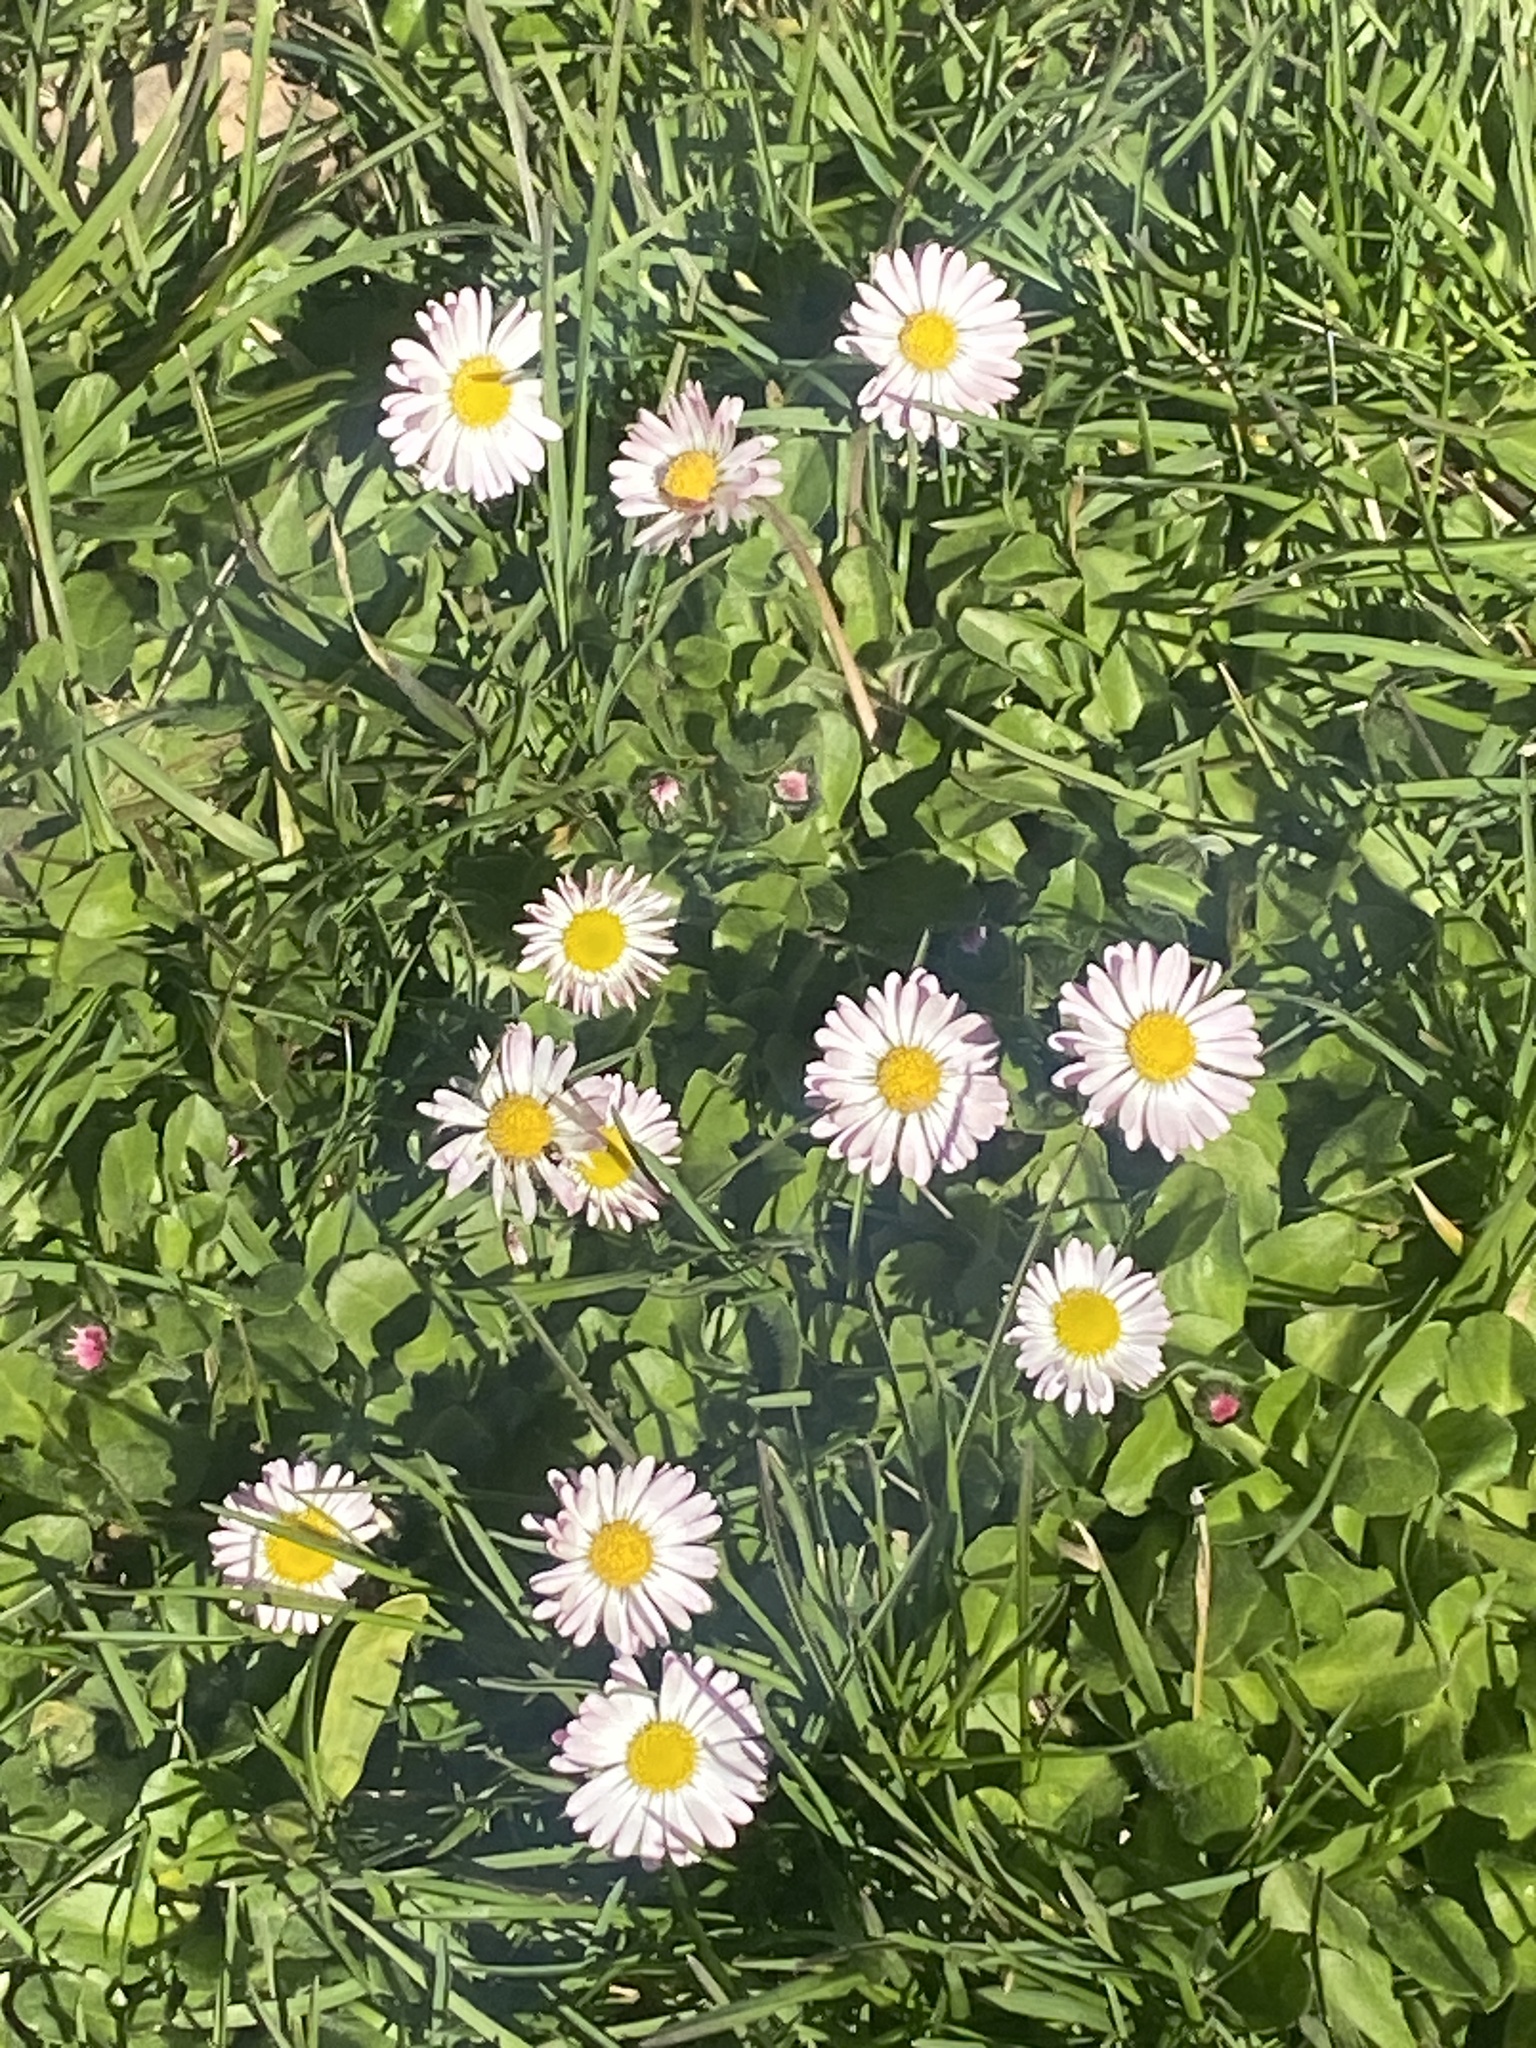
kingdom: Plantae
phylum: Tracheophyta
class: Magnoliopsida
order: Asterales
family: Asteraceae
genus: Bellis
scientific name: Bellis perennis
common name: Lawndaisy
